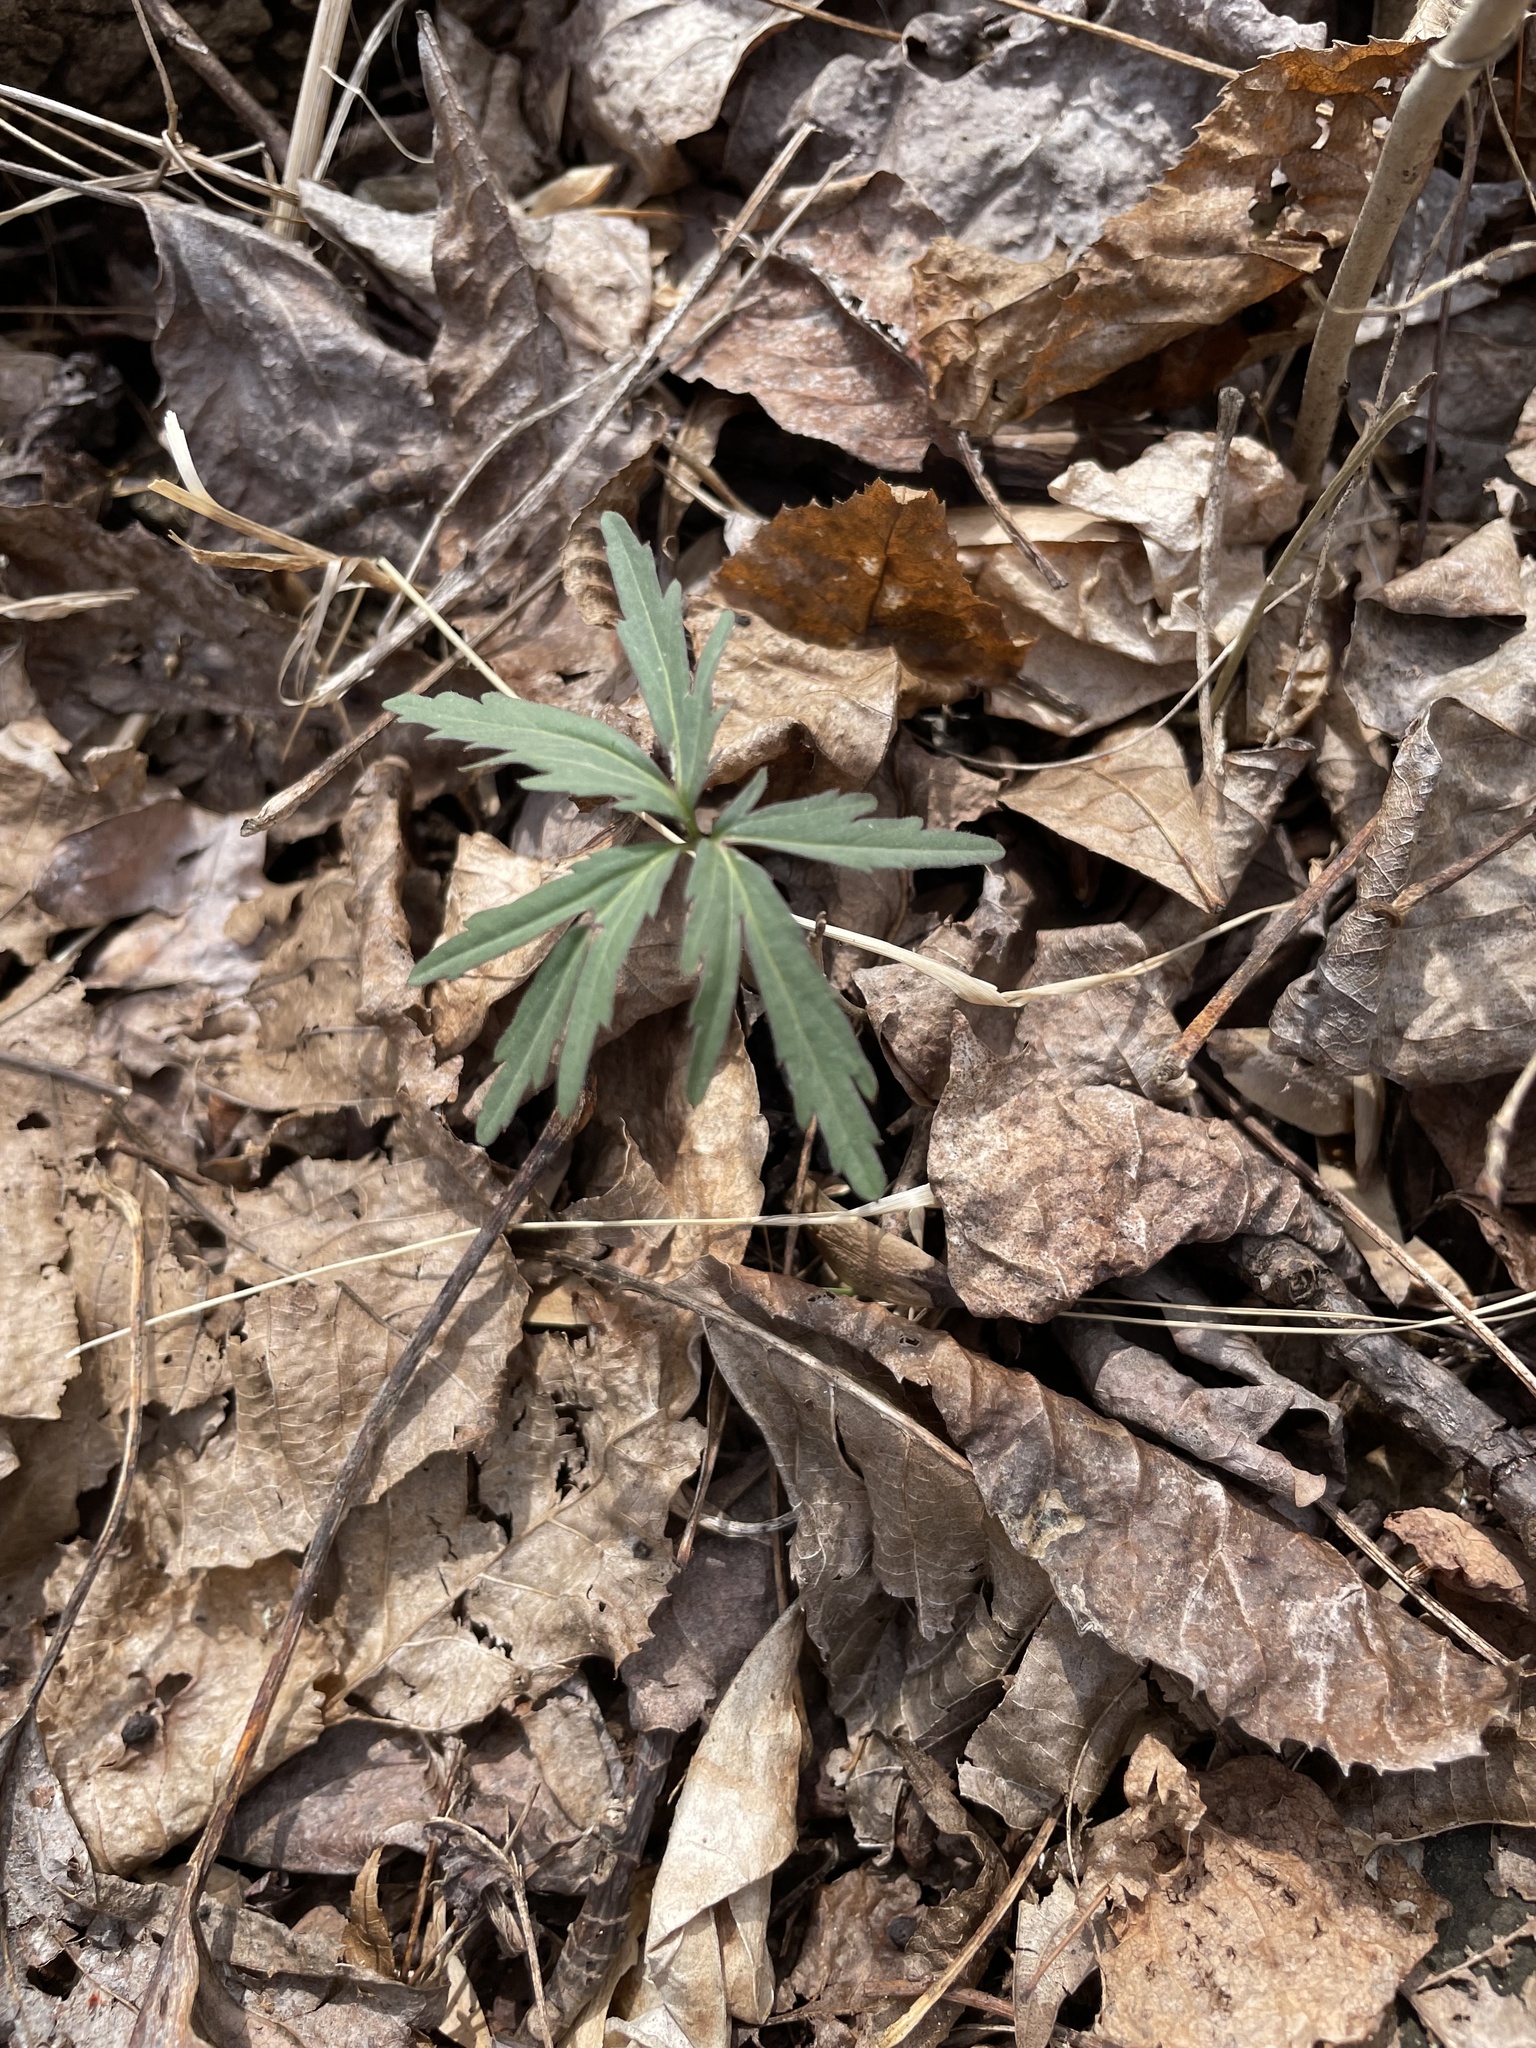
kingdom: Plantae
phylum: Tracheophyta
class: Magnoliopsida
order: Brassicales
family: Brassicaceae
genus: Cardamine
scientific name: Cardamine concatenata
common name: Cut-leaf toothcup
